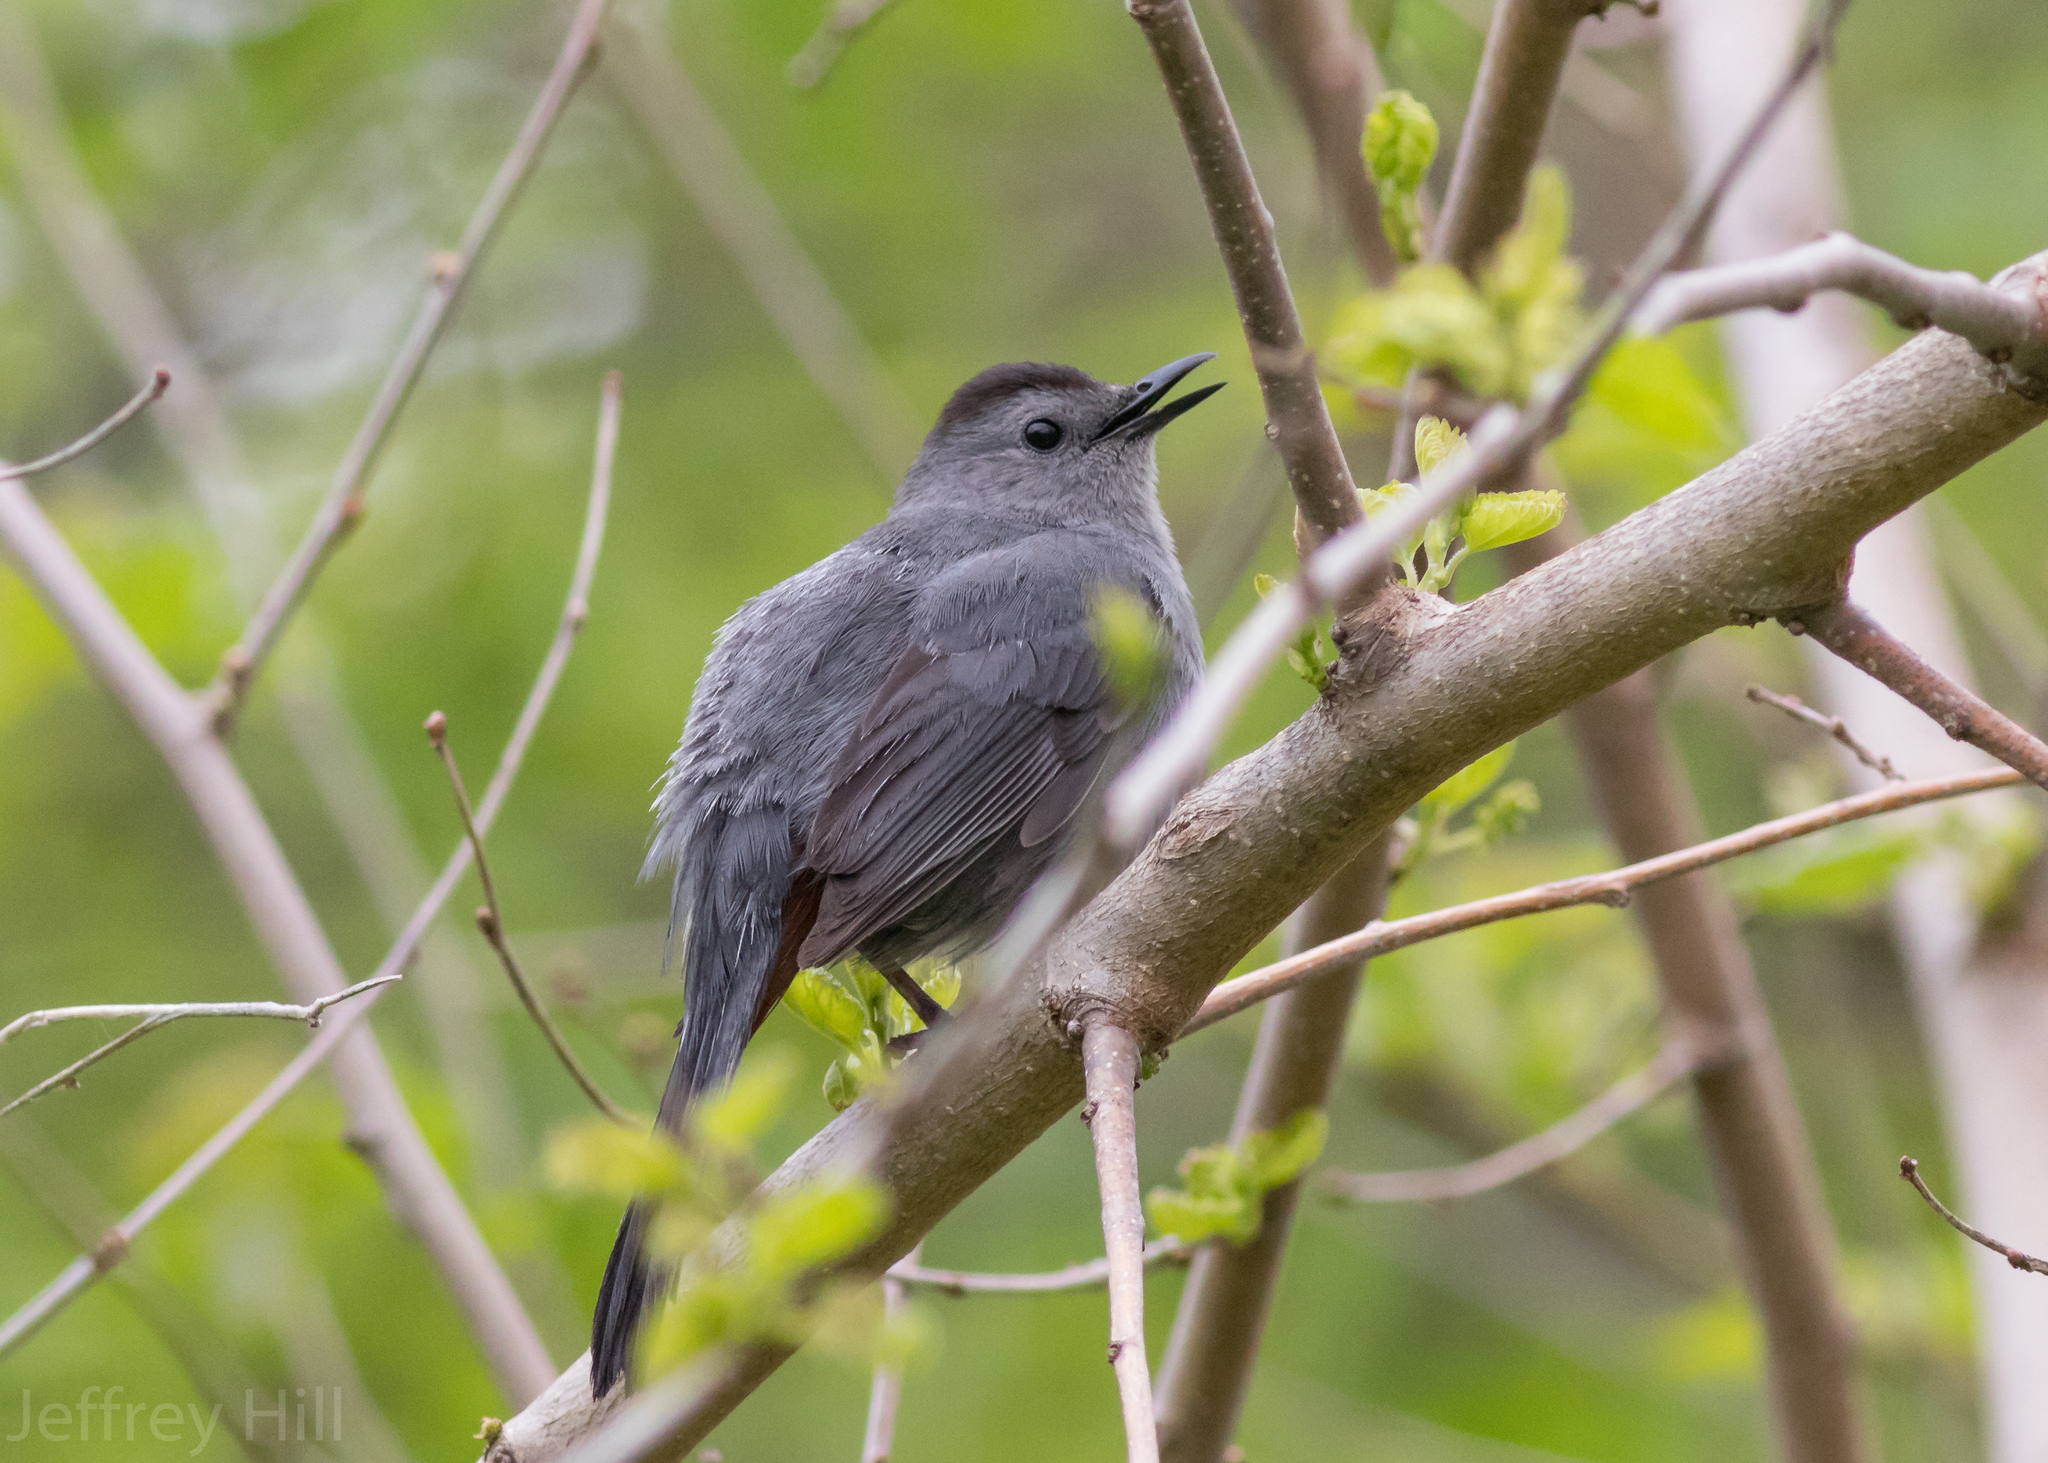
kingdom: Animalia
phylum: Chordata
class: Aves
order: Passeriformes
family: Mimidae
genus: Dumetella
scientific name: Dumetella carolinensis
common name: Gray catbird
